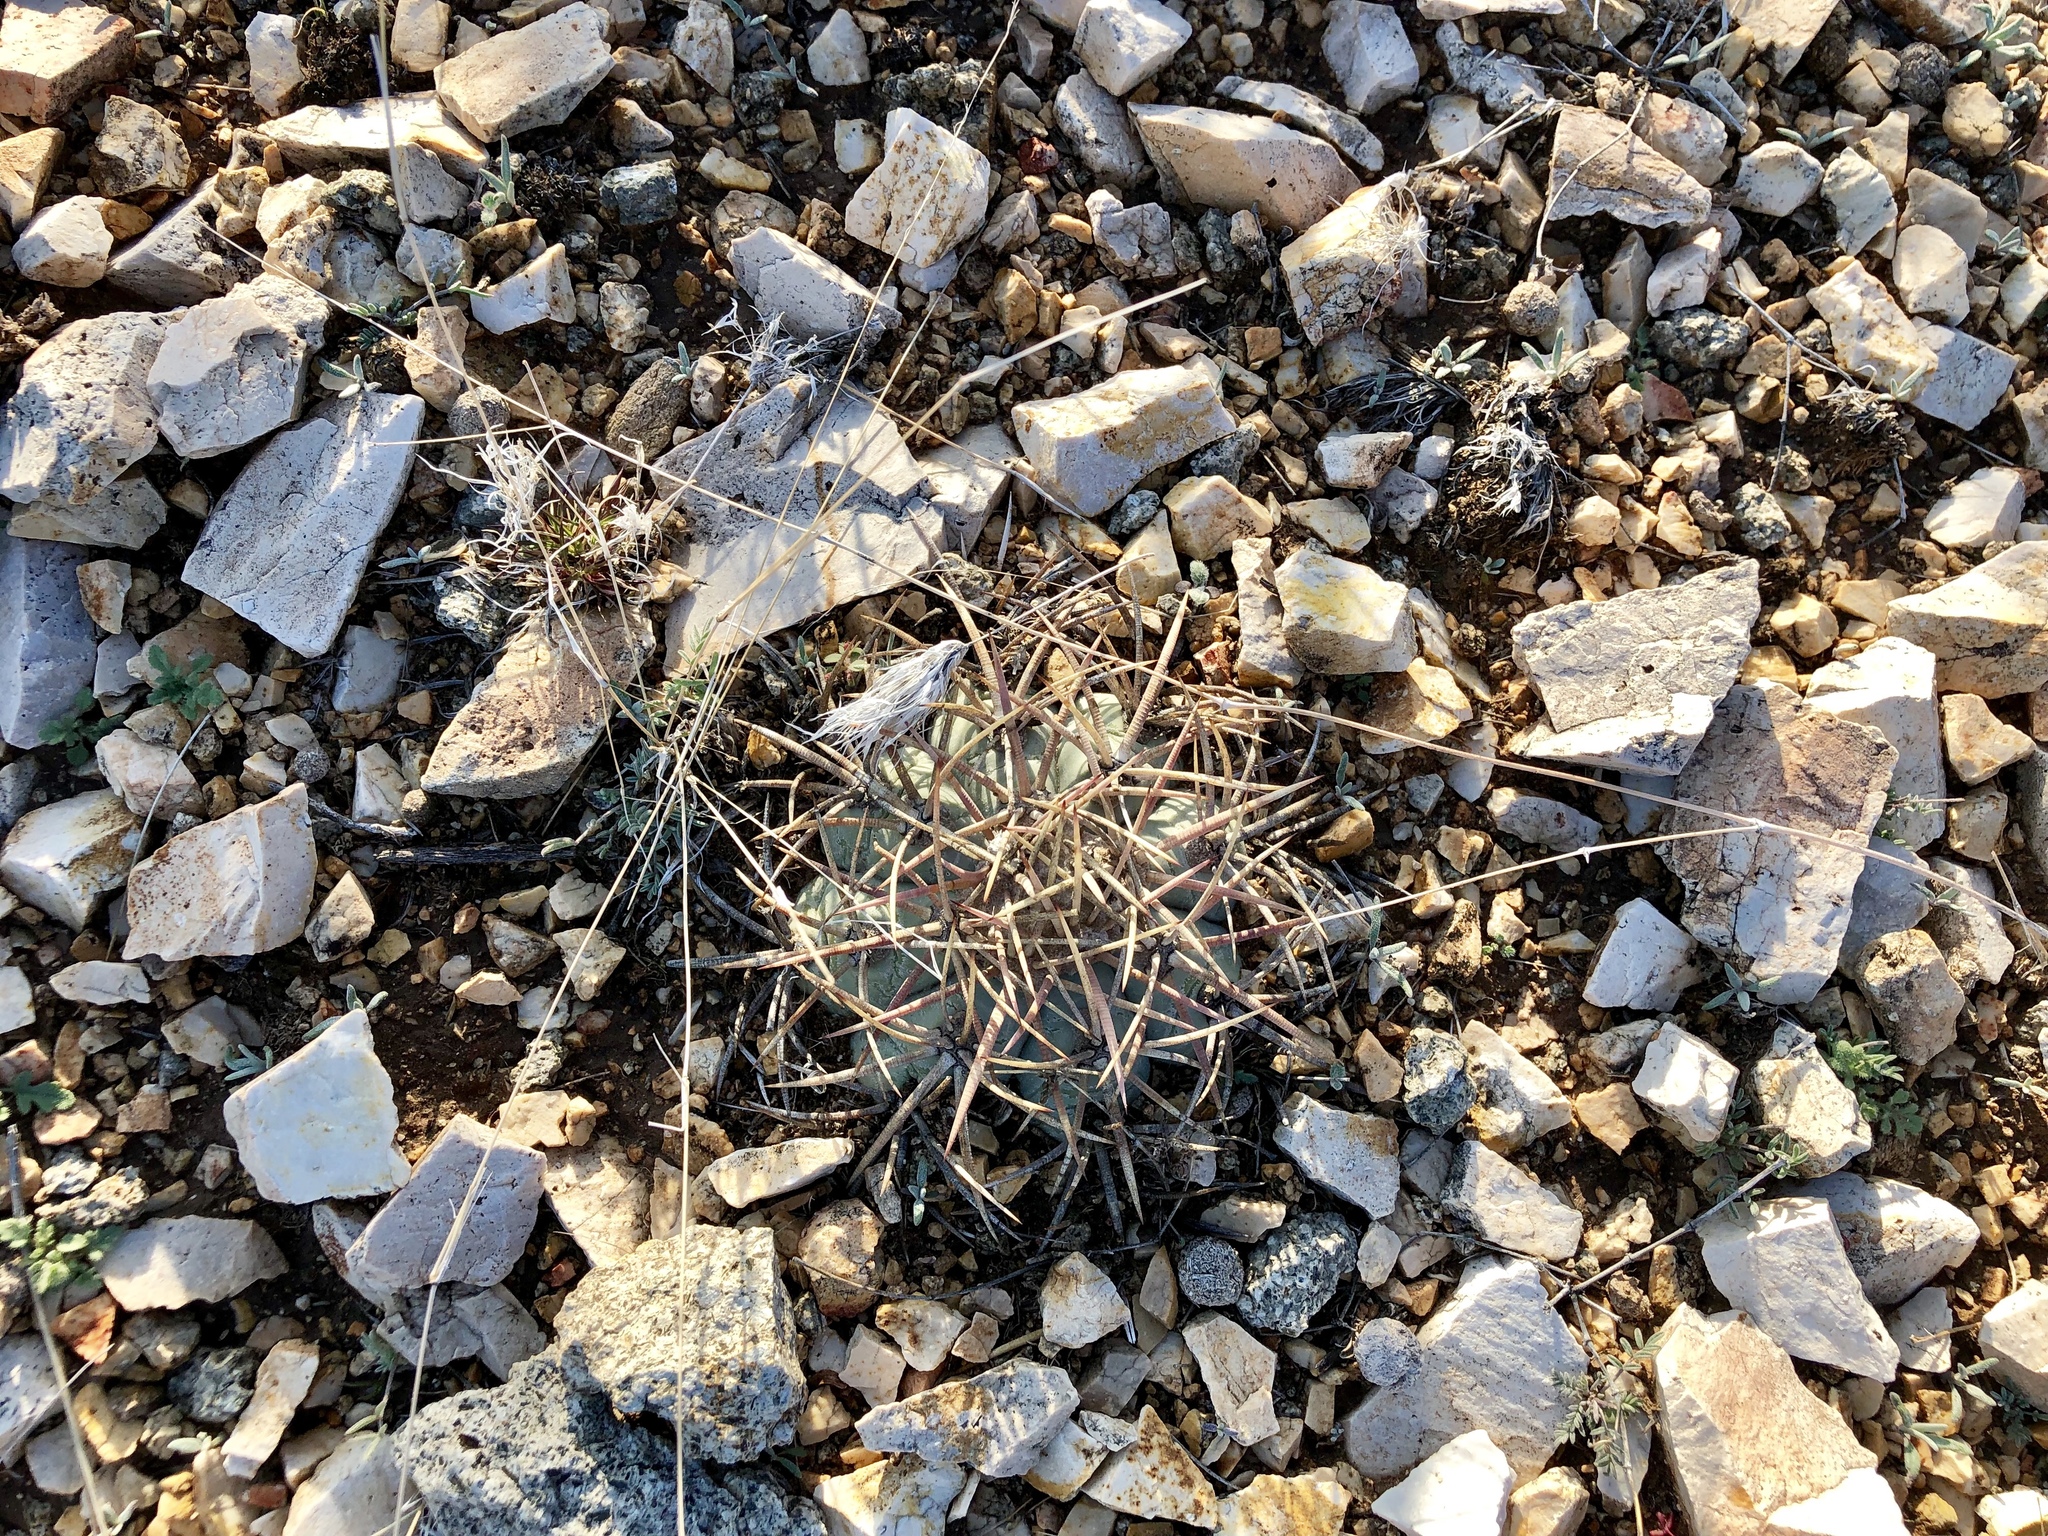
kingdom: Plantae
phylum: Tracheophyta
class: Magnoliopsida
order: Caryophyllales
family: Cactaceae
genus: Echinocactus
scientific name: Echinocactus horizonthalonius
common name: Devilshead
